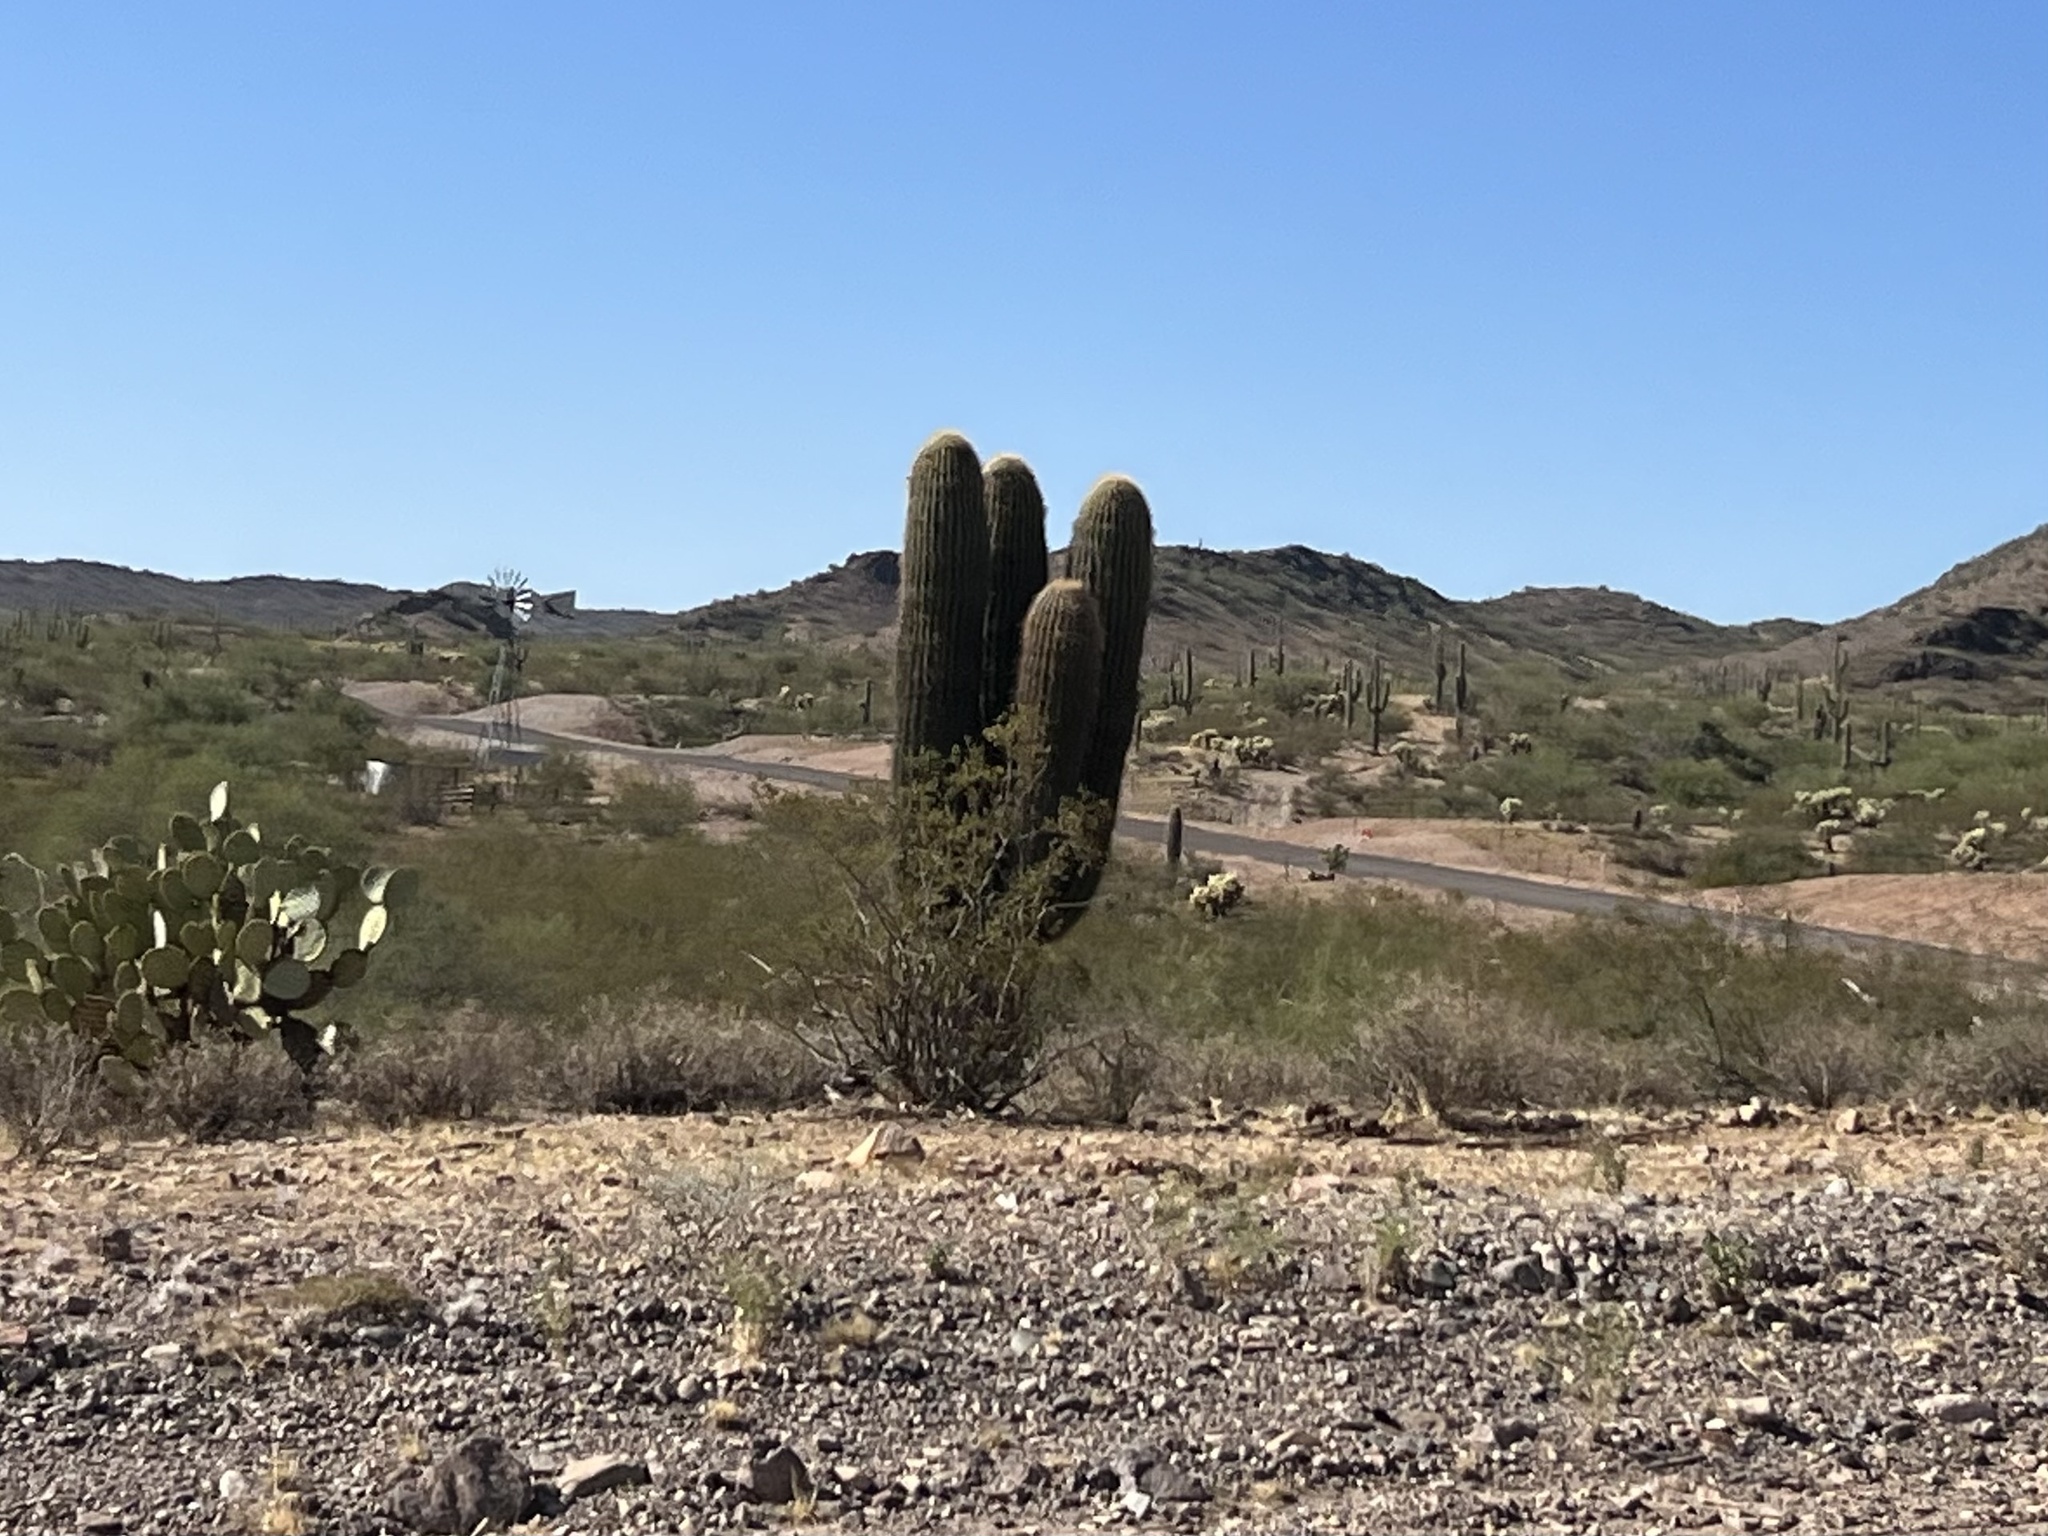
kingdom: Plantae
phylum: Tracheophyta
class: Magnoliopsida
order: Caryophyllales
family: Cactaceae
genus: Carnegiea
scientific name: Carnegiea gigantea
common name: Saguaro
